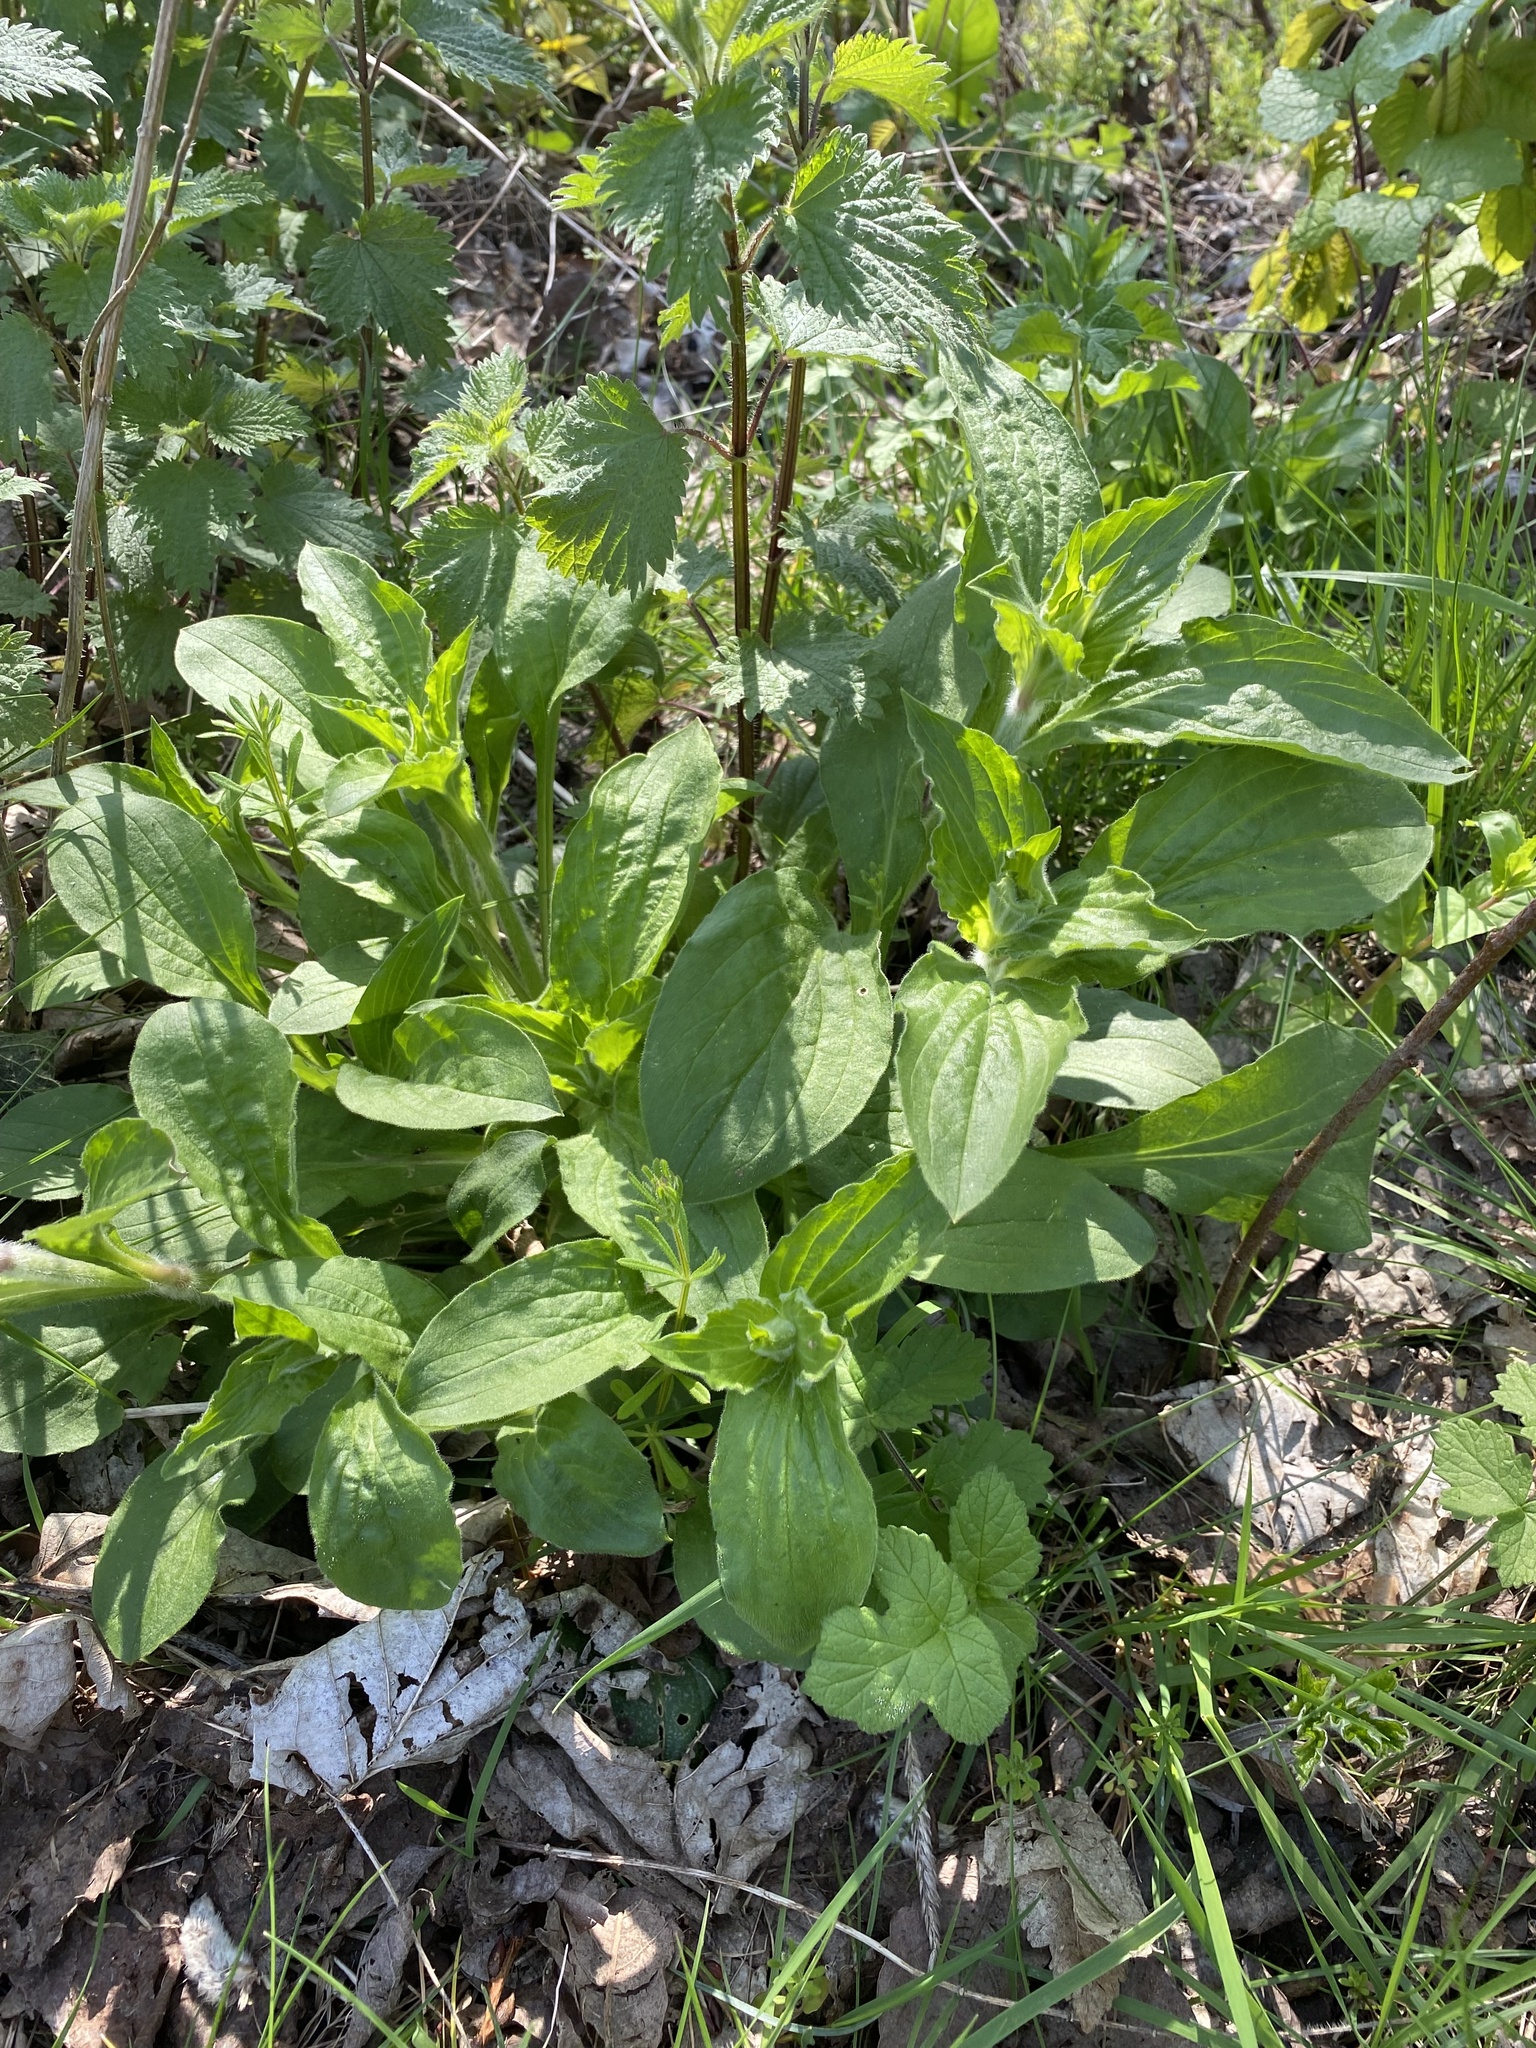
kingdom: Plantae
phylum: Tracheophyta
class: Magnoliopsida
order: Caryophyllales
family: Caryophyllaceae
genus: Silene
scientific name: Silene dioica
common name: Red campion
